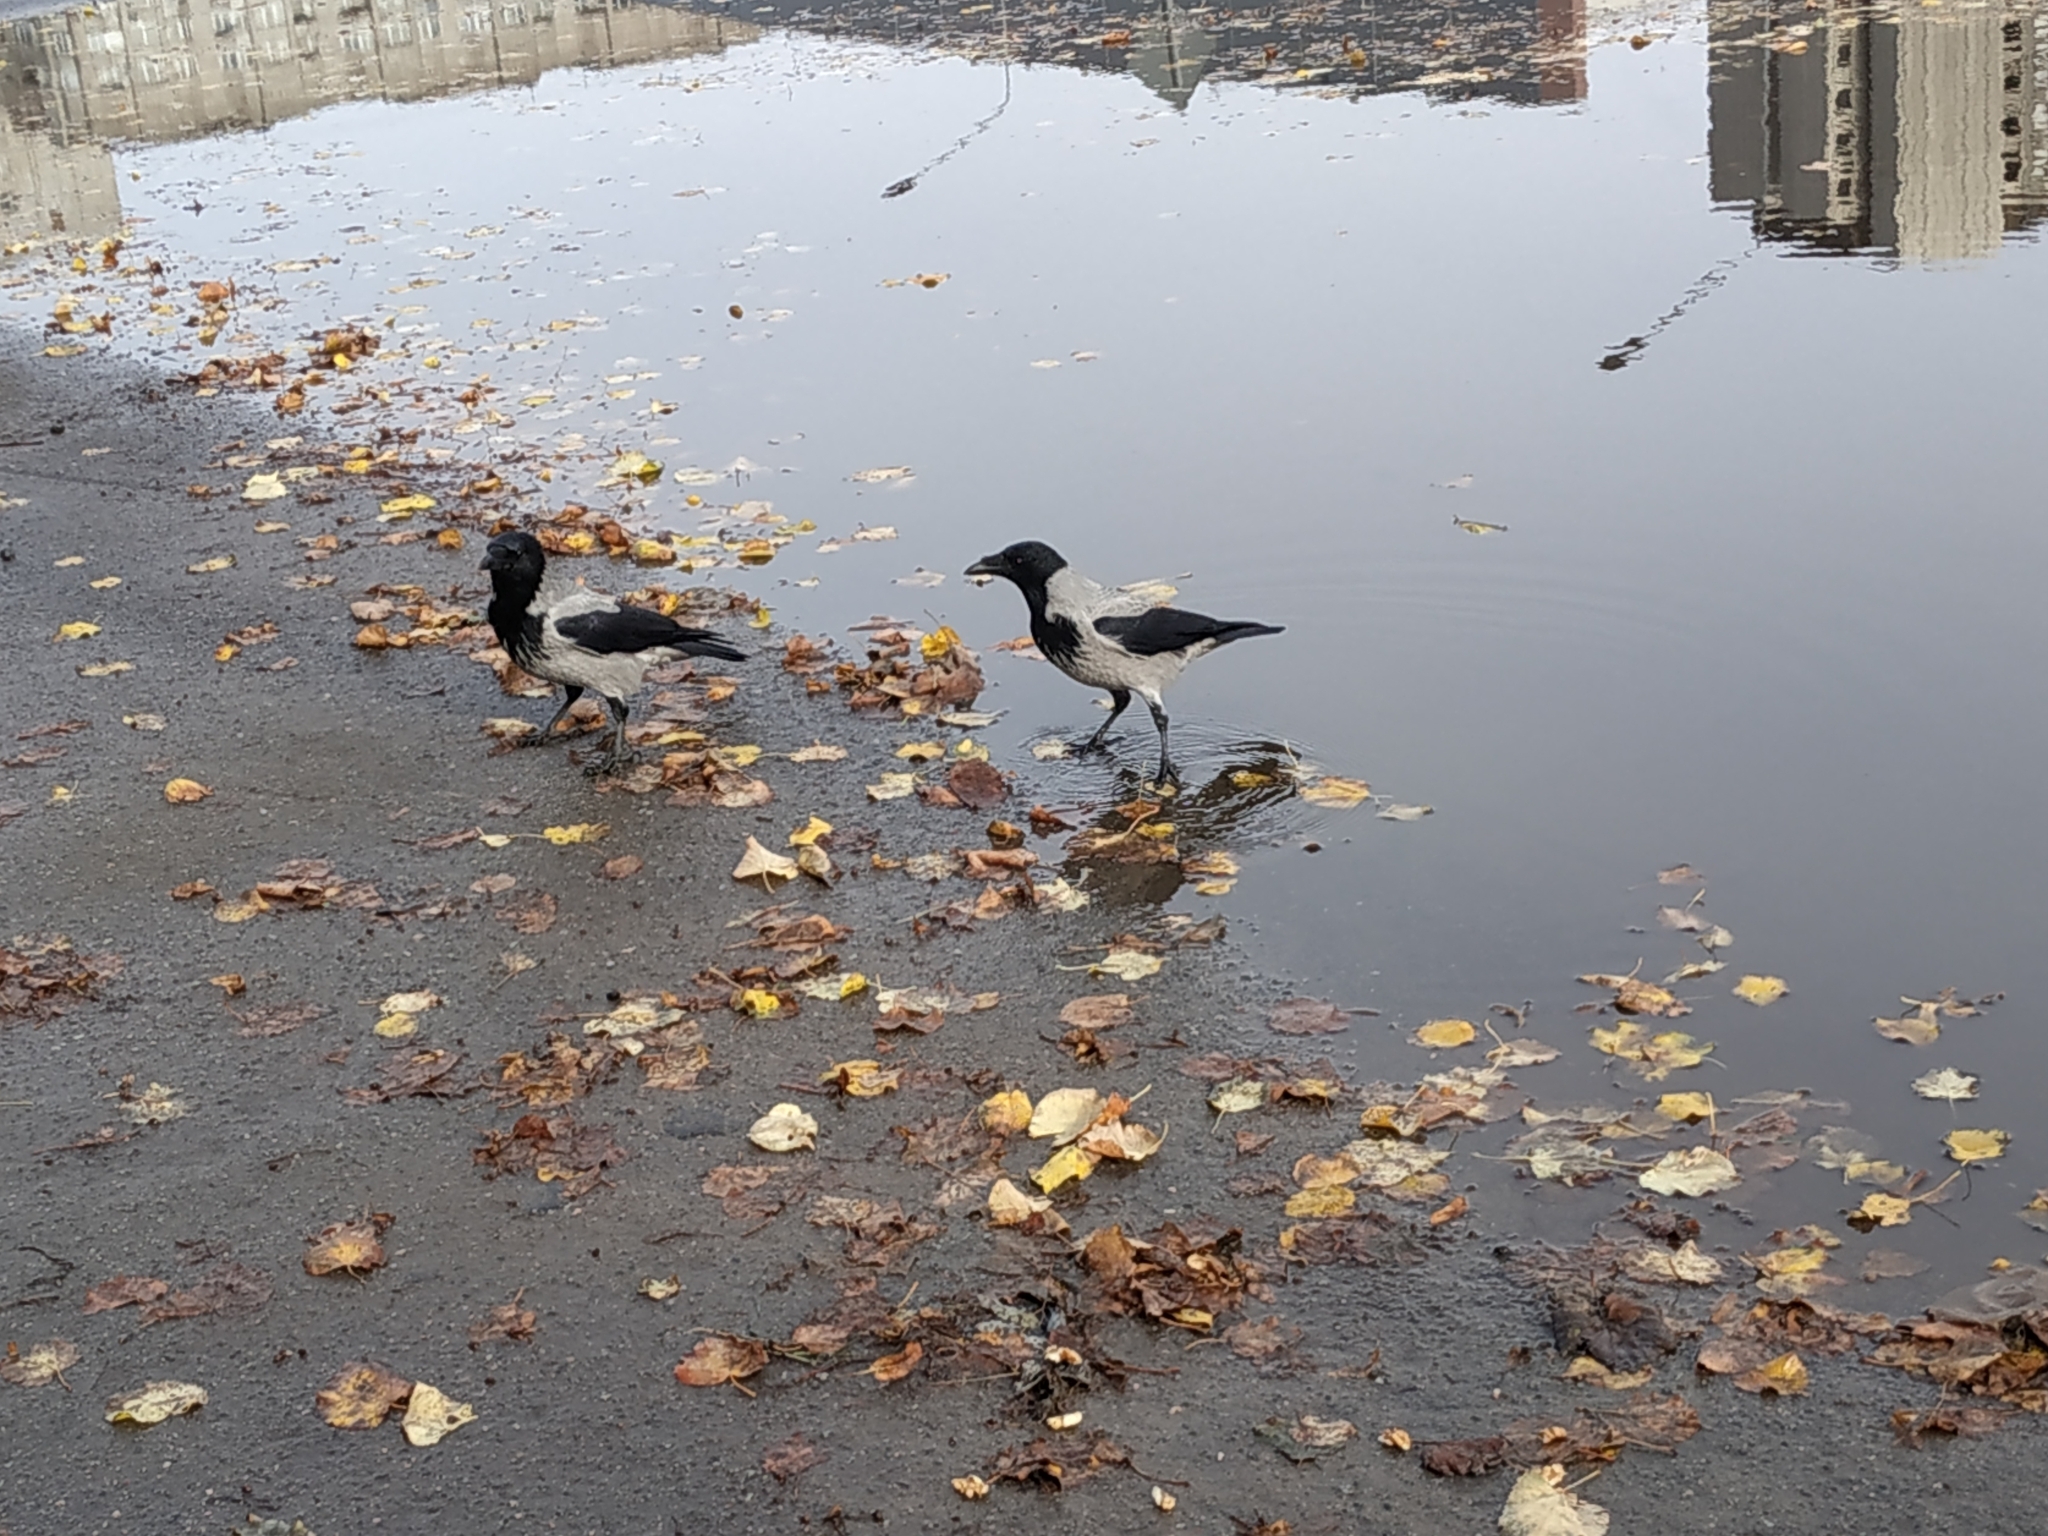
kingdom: Animalia
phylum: Chordata
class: Aves
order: Passeriformes
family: Corvidae
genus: Corvus
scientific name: Corvus cornix
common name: Hooded crow
